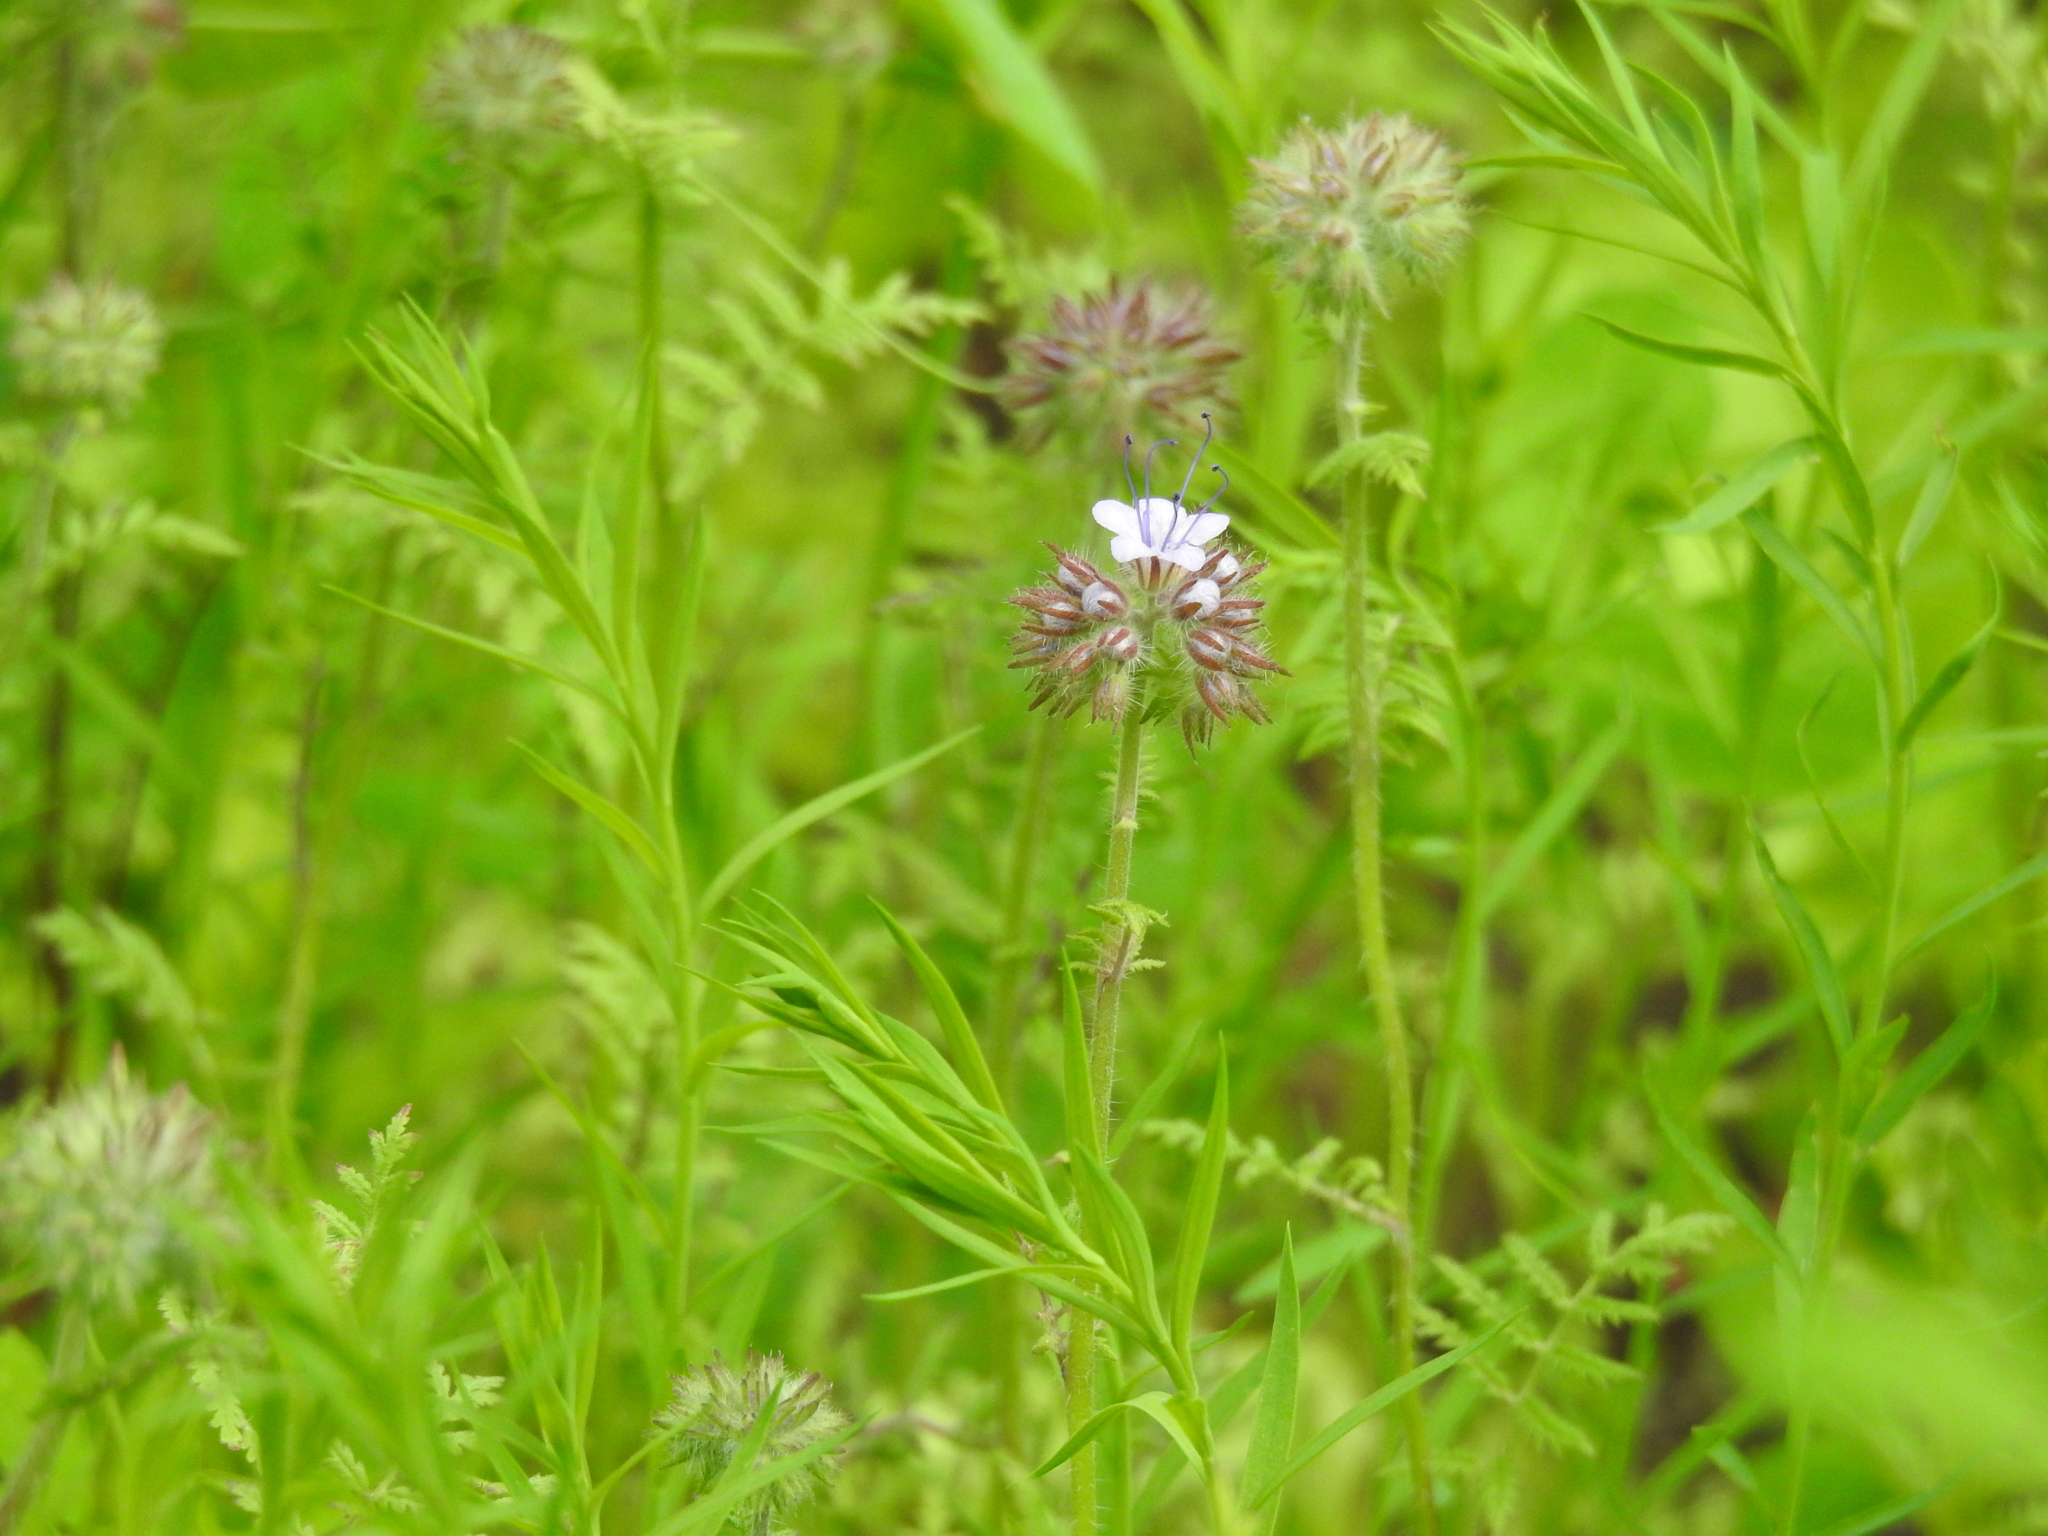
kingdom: Plantae
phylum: Tracheophyta
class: Magnoliopsida
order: Boraginales
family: Hydrophyllaceae
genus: Phacelia
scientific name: Phacelia tanacetifolia
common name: Phacelia
